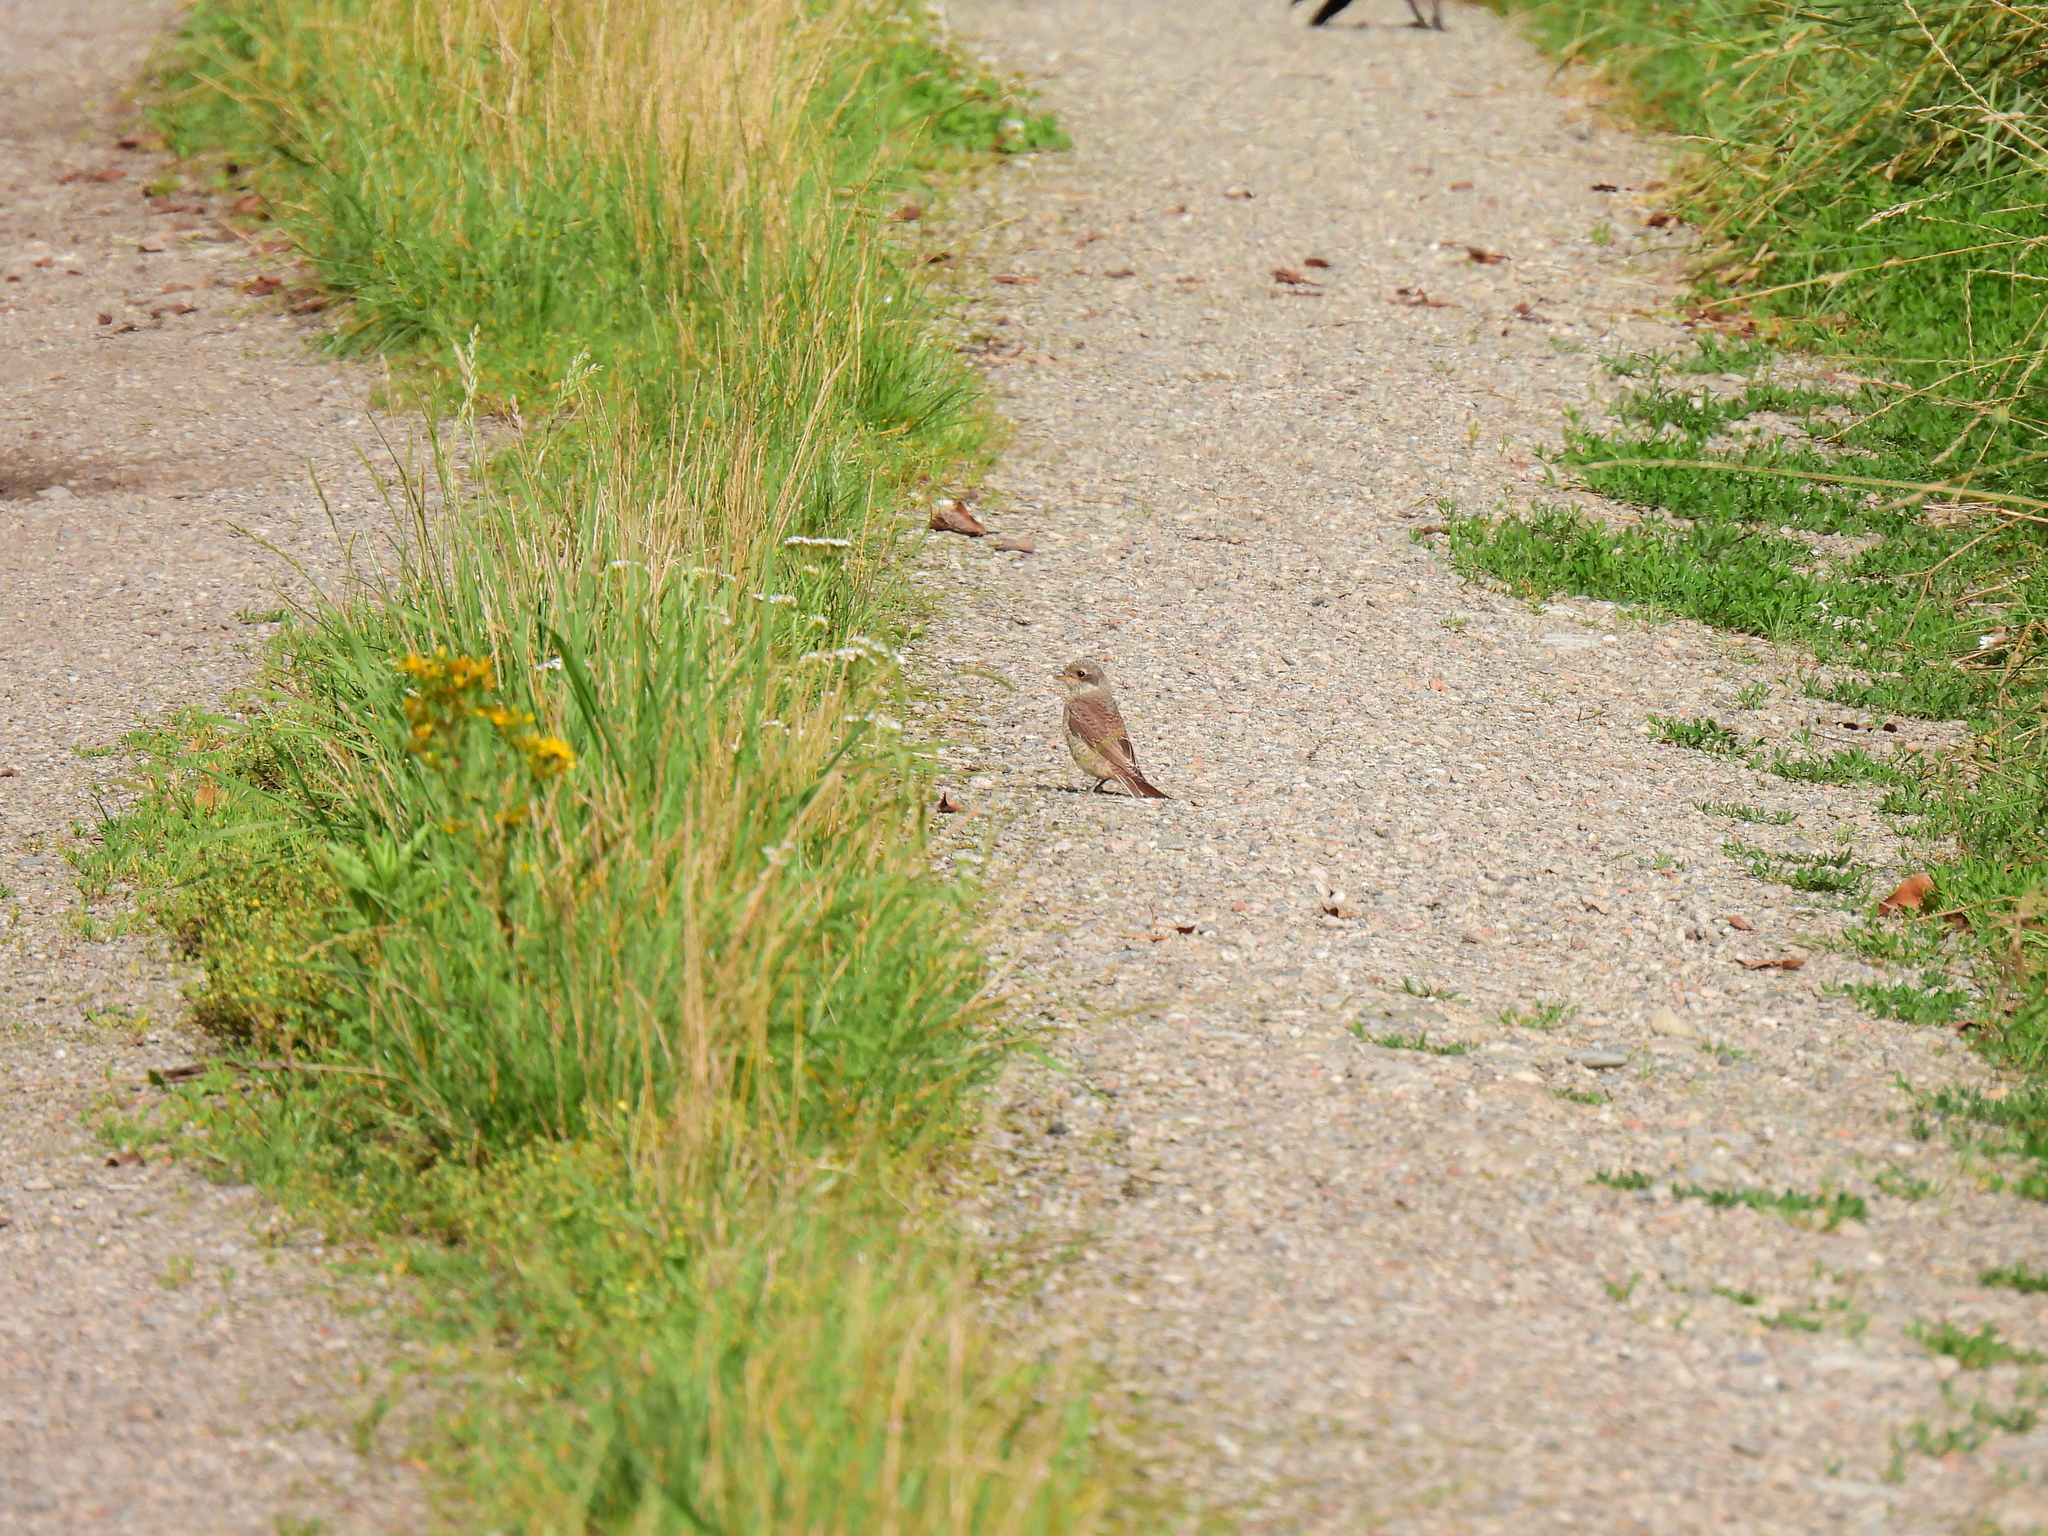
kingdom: Animalia
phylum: Chordata
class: Aves
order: Passeriformes
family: Laniidae
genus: Lanius
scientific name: Lanius collurio
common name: Red-backed shrike
